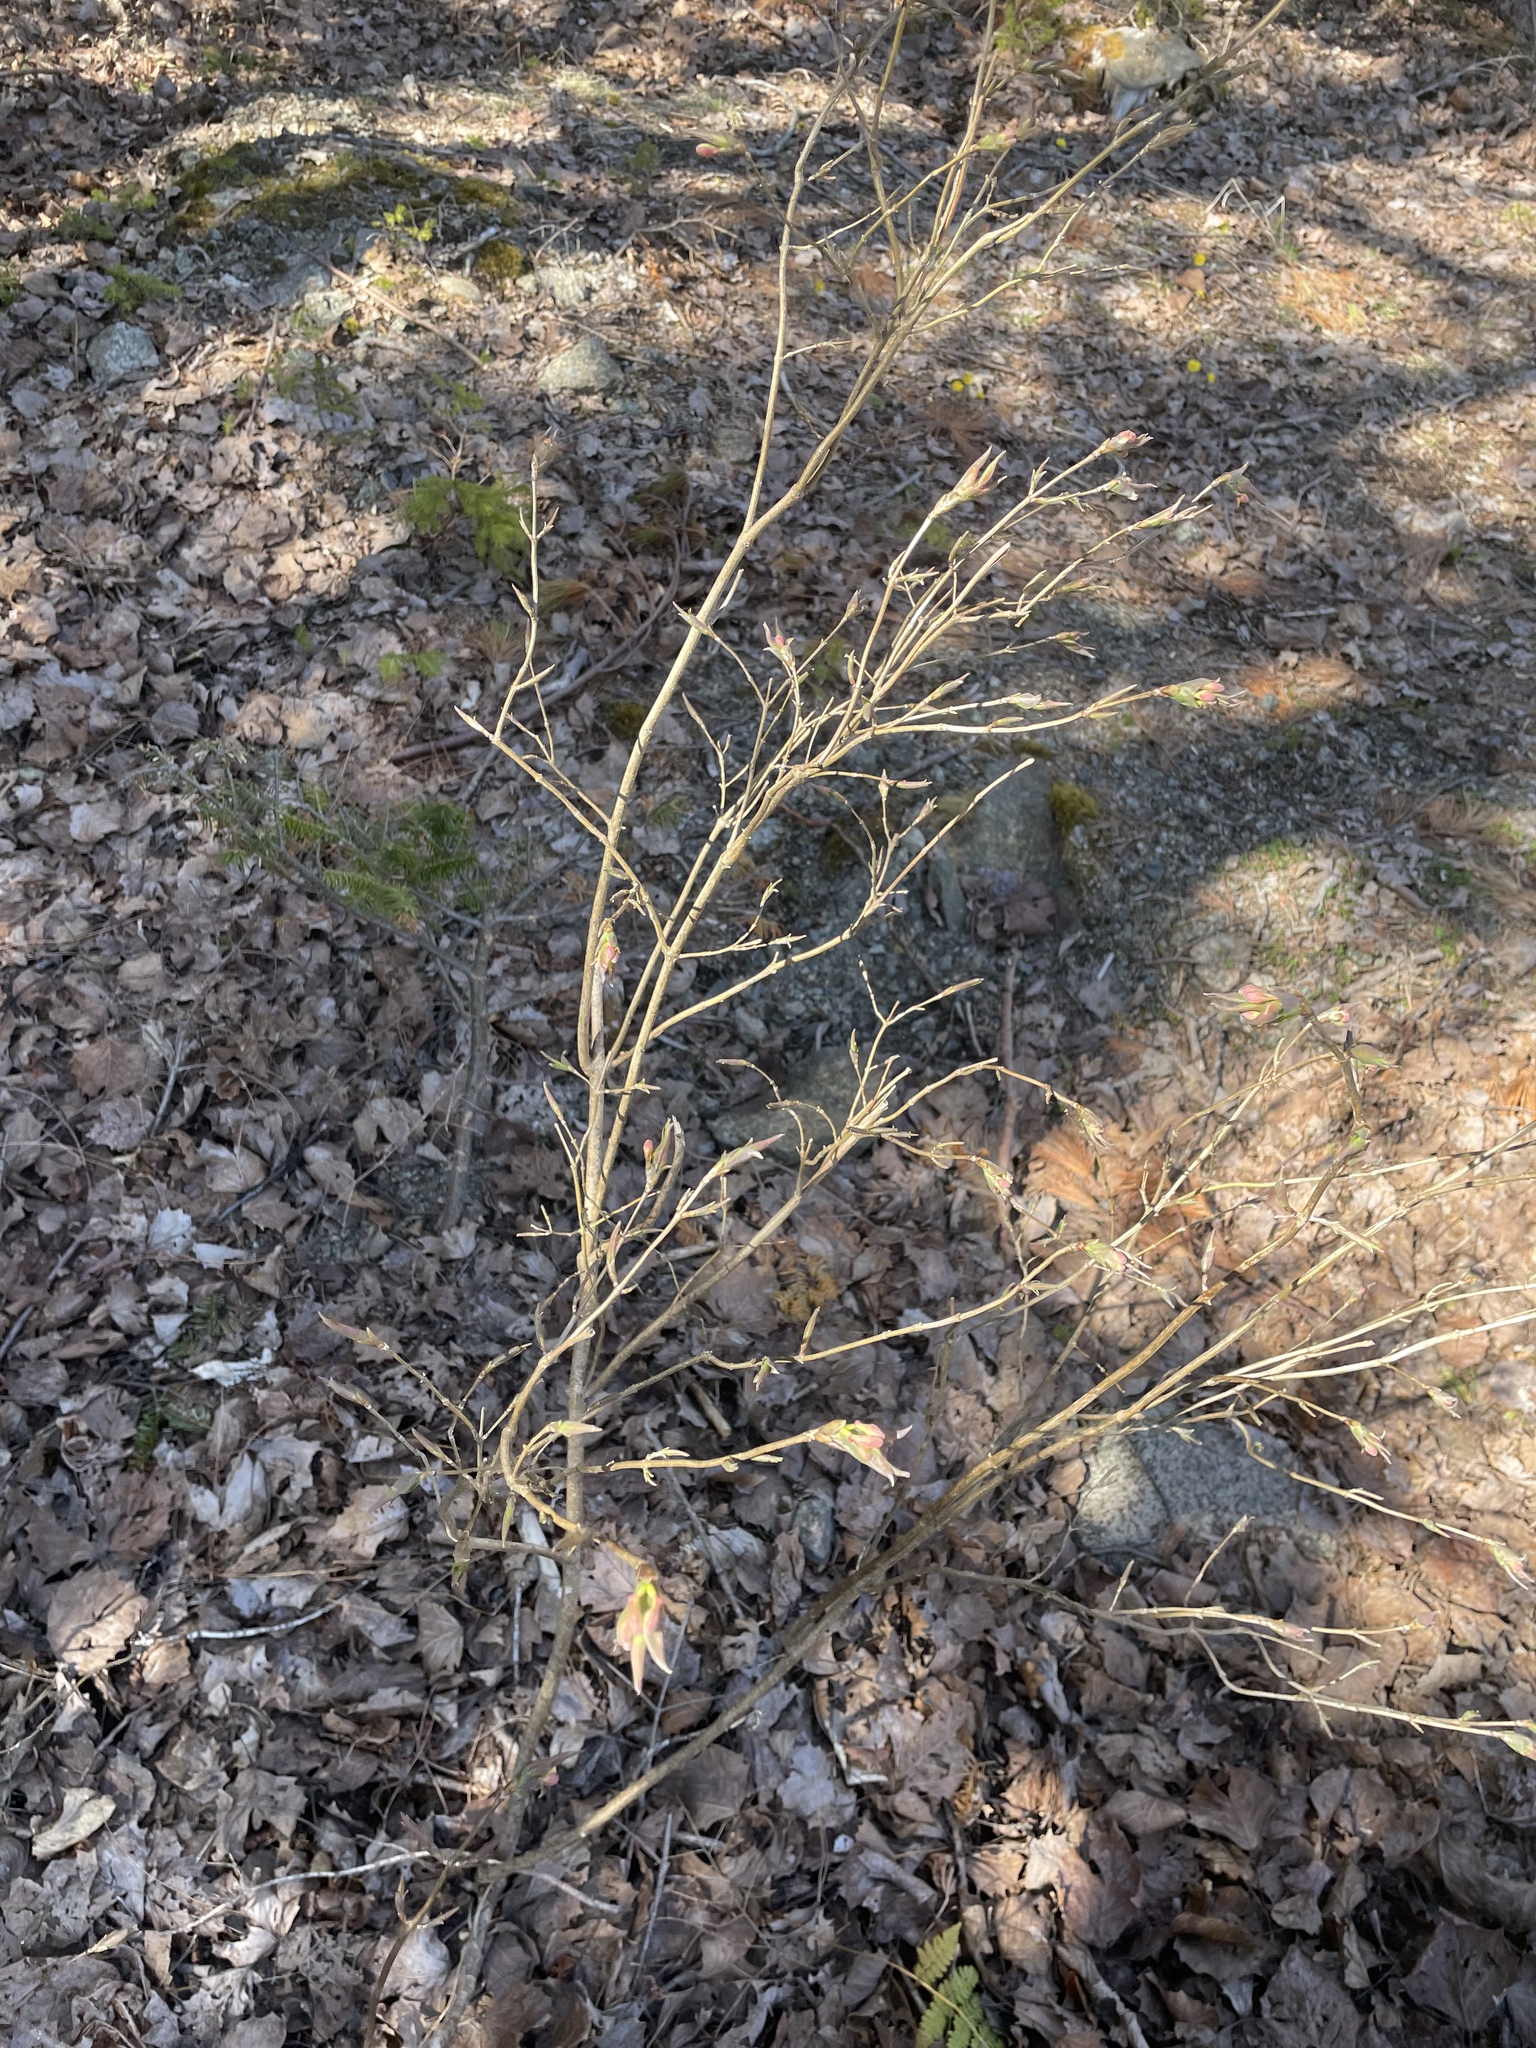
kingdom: Plantae
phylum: Tracheophyta
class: Magnoliopsida
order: Dipsacales
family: Caprifoliaceae
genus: Lonicera
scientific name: Lonicera canadensis
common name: American fly-honeysuckle
